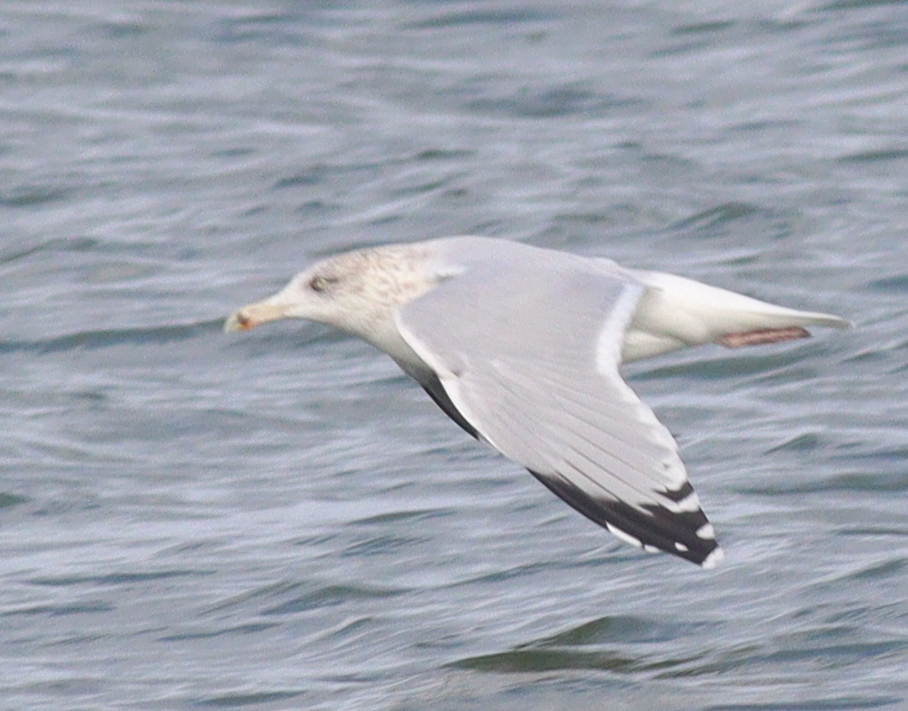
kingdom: Animalia
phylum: Chordata
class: Aves
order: Charadriiformes
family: Laridae
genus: Larus
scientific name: Larus argentatus
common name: Herring gull
